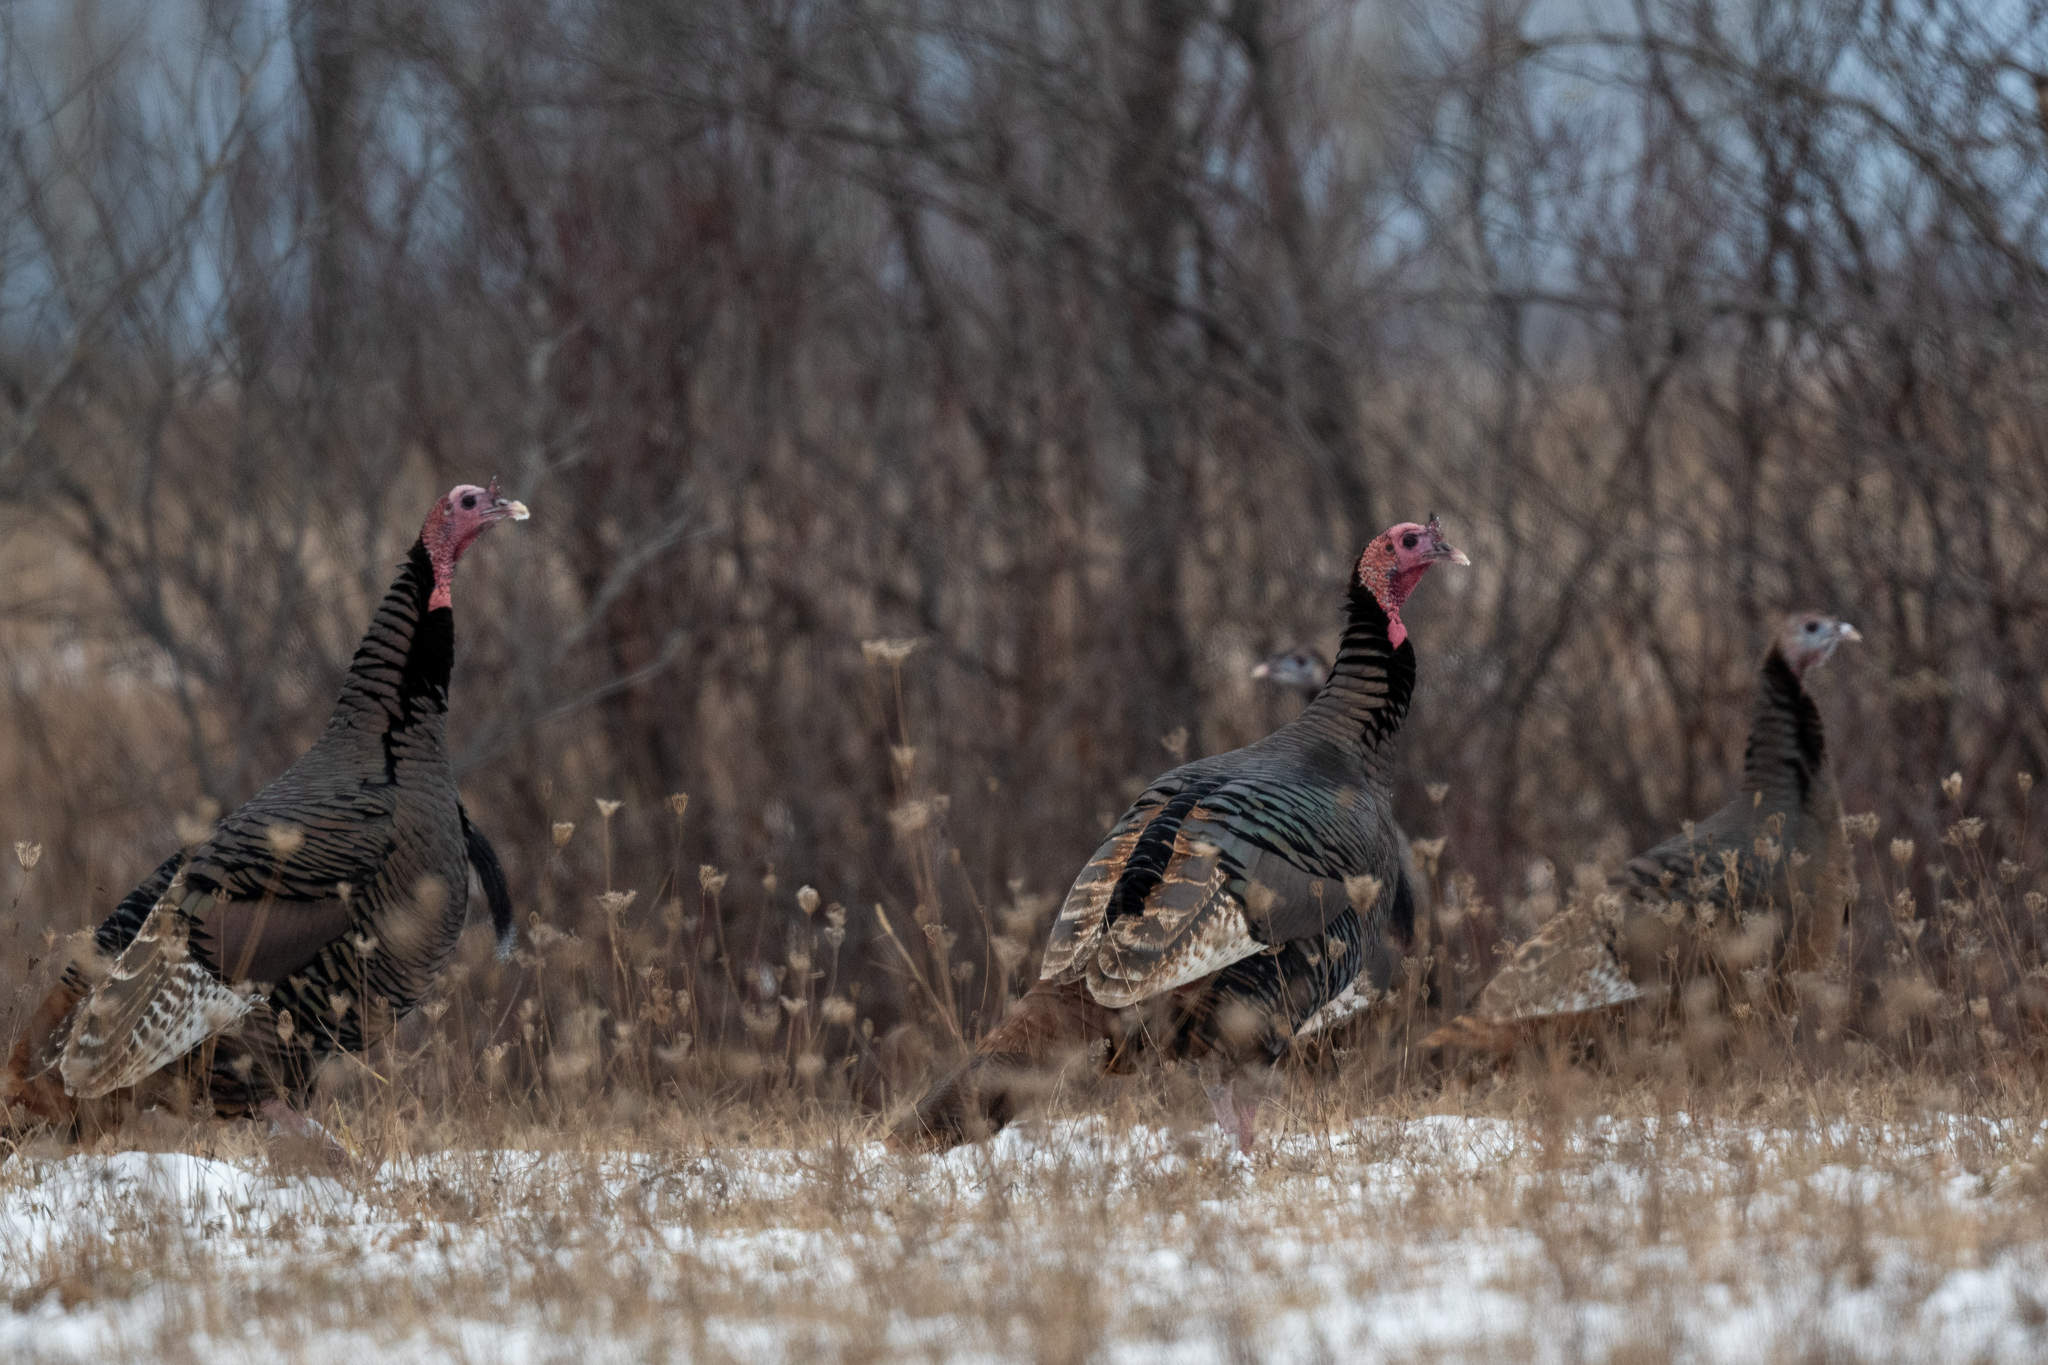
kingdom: Animalia
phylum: Chordata
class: Aves
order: Galliformes
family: Phasianidae
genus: Meleagris
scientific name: Meleagris gallopavo
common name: Wild turkey
